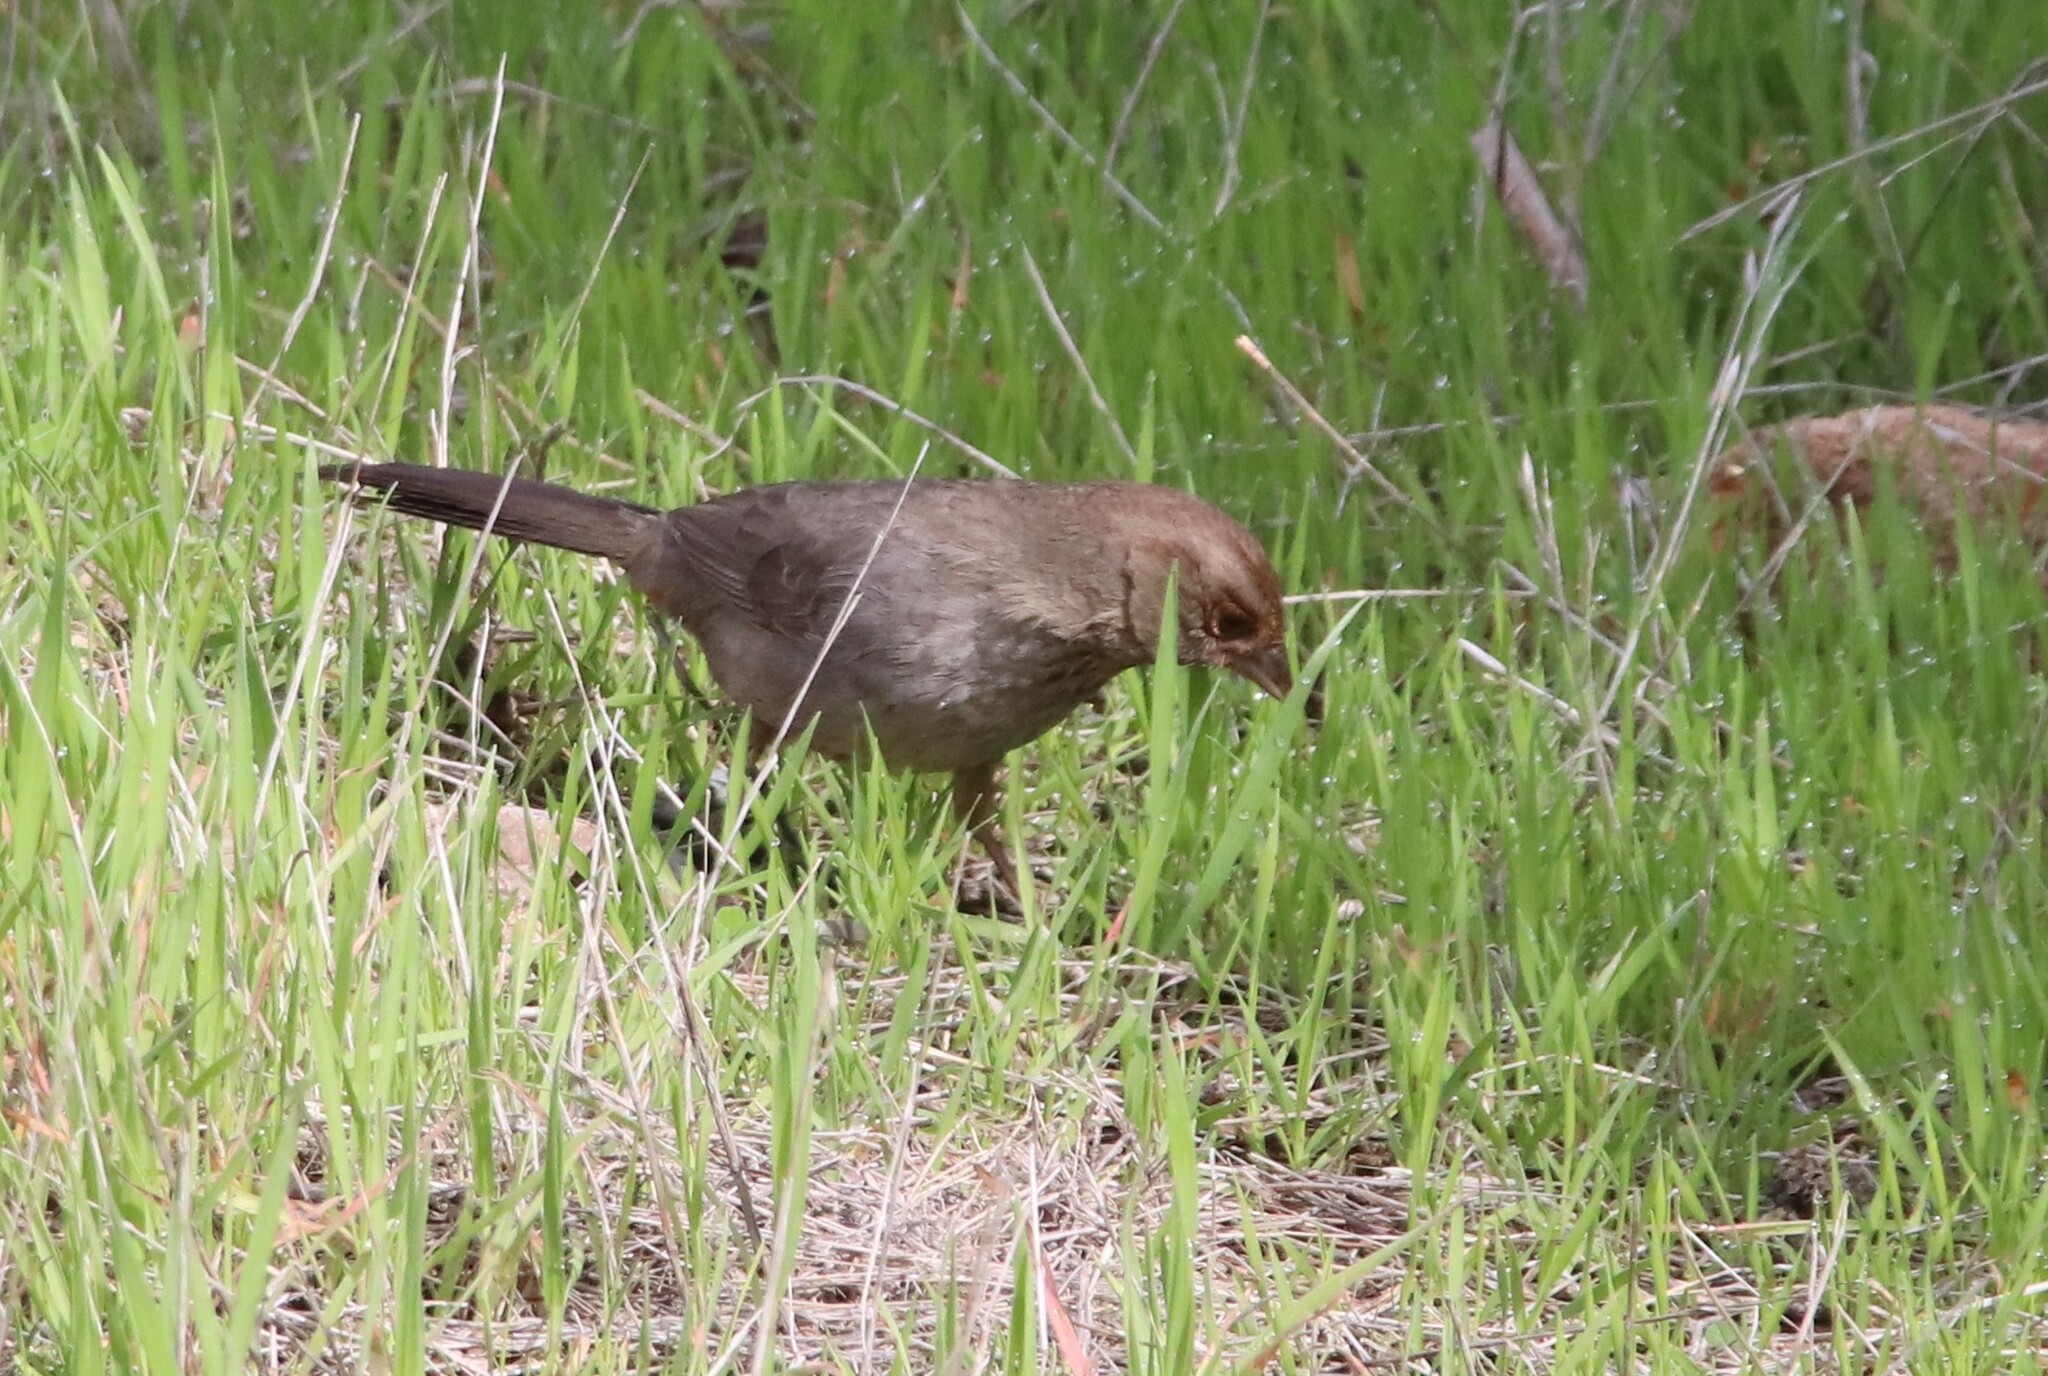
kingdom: Animalia
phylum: Chordata
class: Aves
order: Passeriformes
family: Passerellidae
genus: Melozone
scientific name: Melozone crissalis
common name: California towhee
